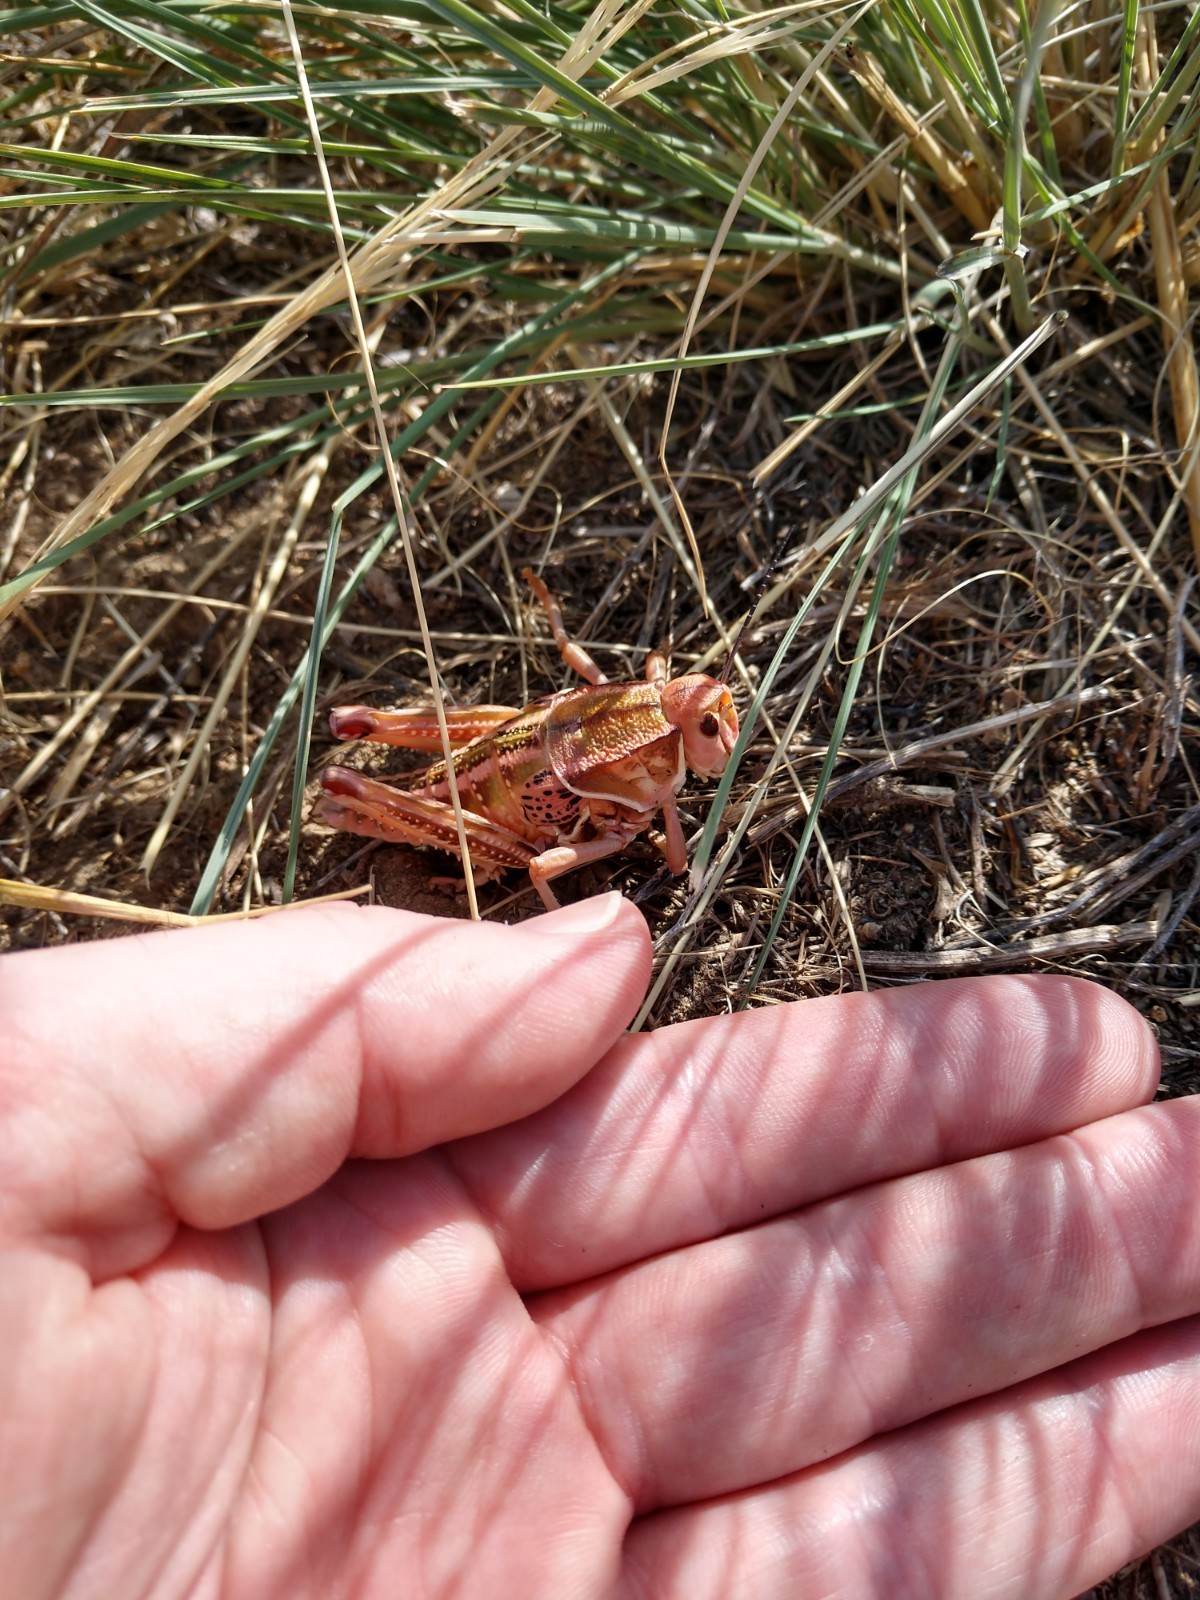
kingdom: Animalia
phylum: Arthropoda
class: Insecta
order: Orthoptera
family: Romaleidae
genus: Brachystola
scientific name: Brachystola magna
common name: Plains lubber grasshopper
